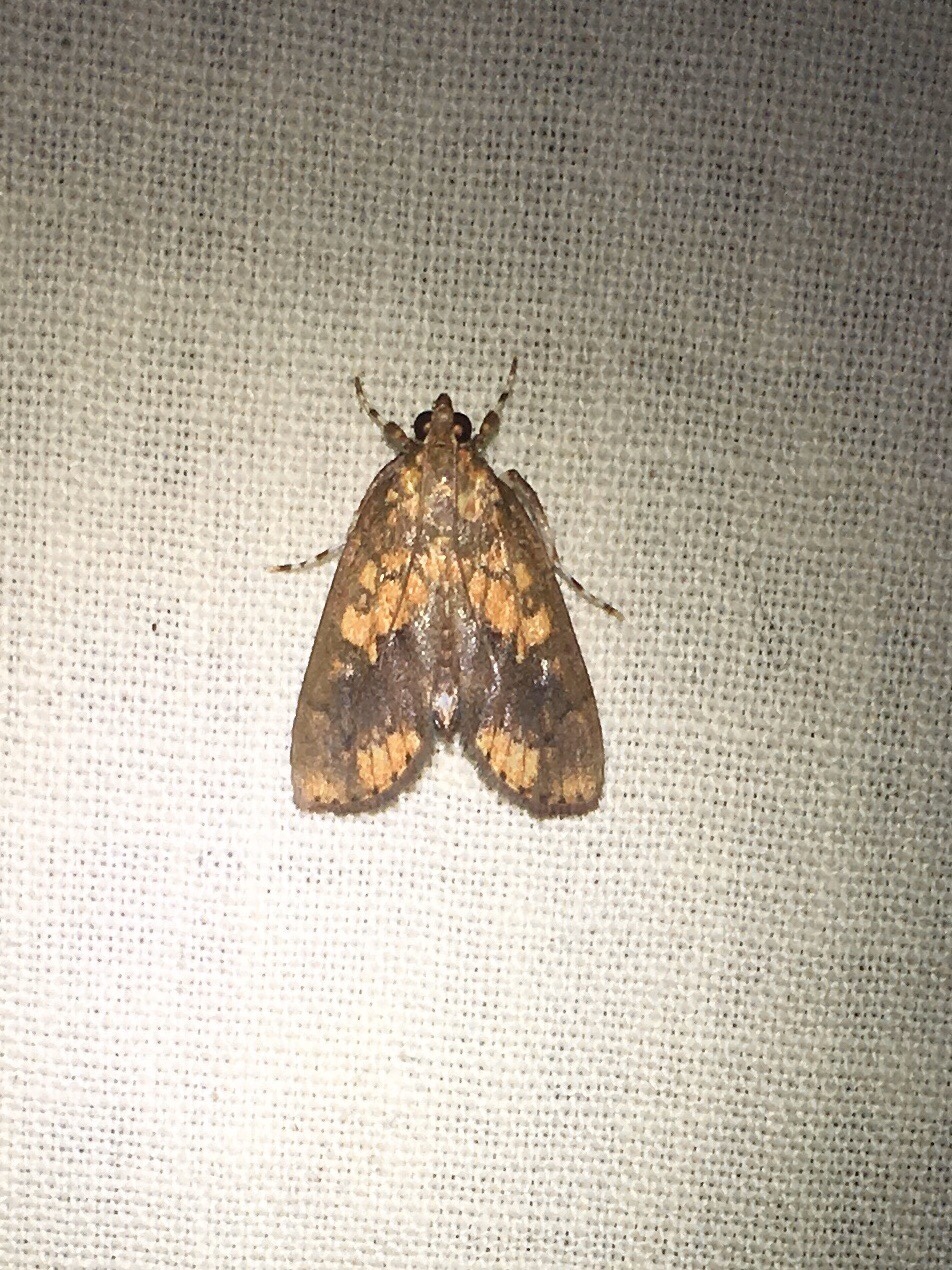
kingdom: Animalia
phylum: Arthropoda
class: Insecta
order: Lepidoptera
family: Crambidae
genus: Mimophobetron
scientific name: Mimophobetron pyropsalis
